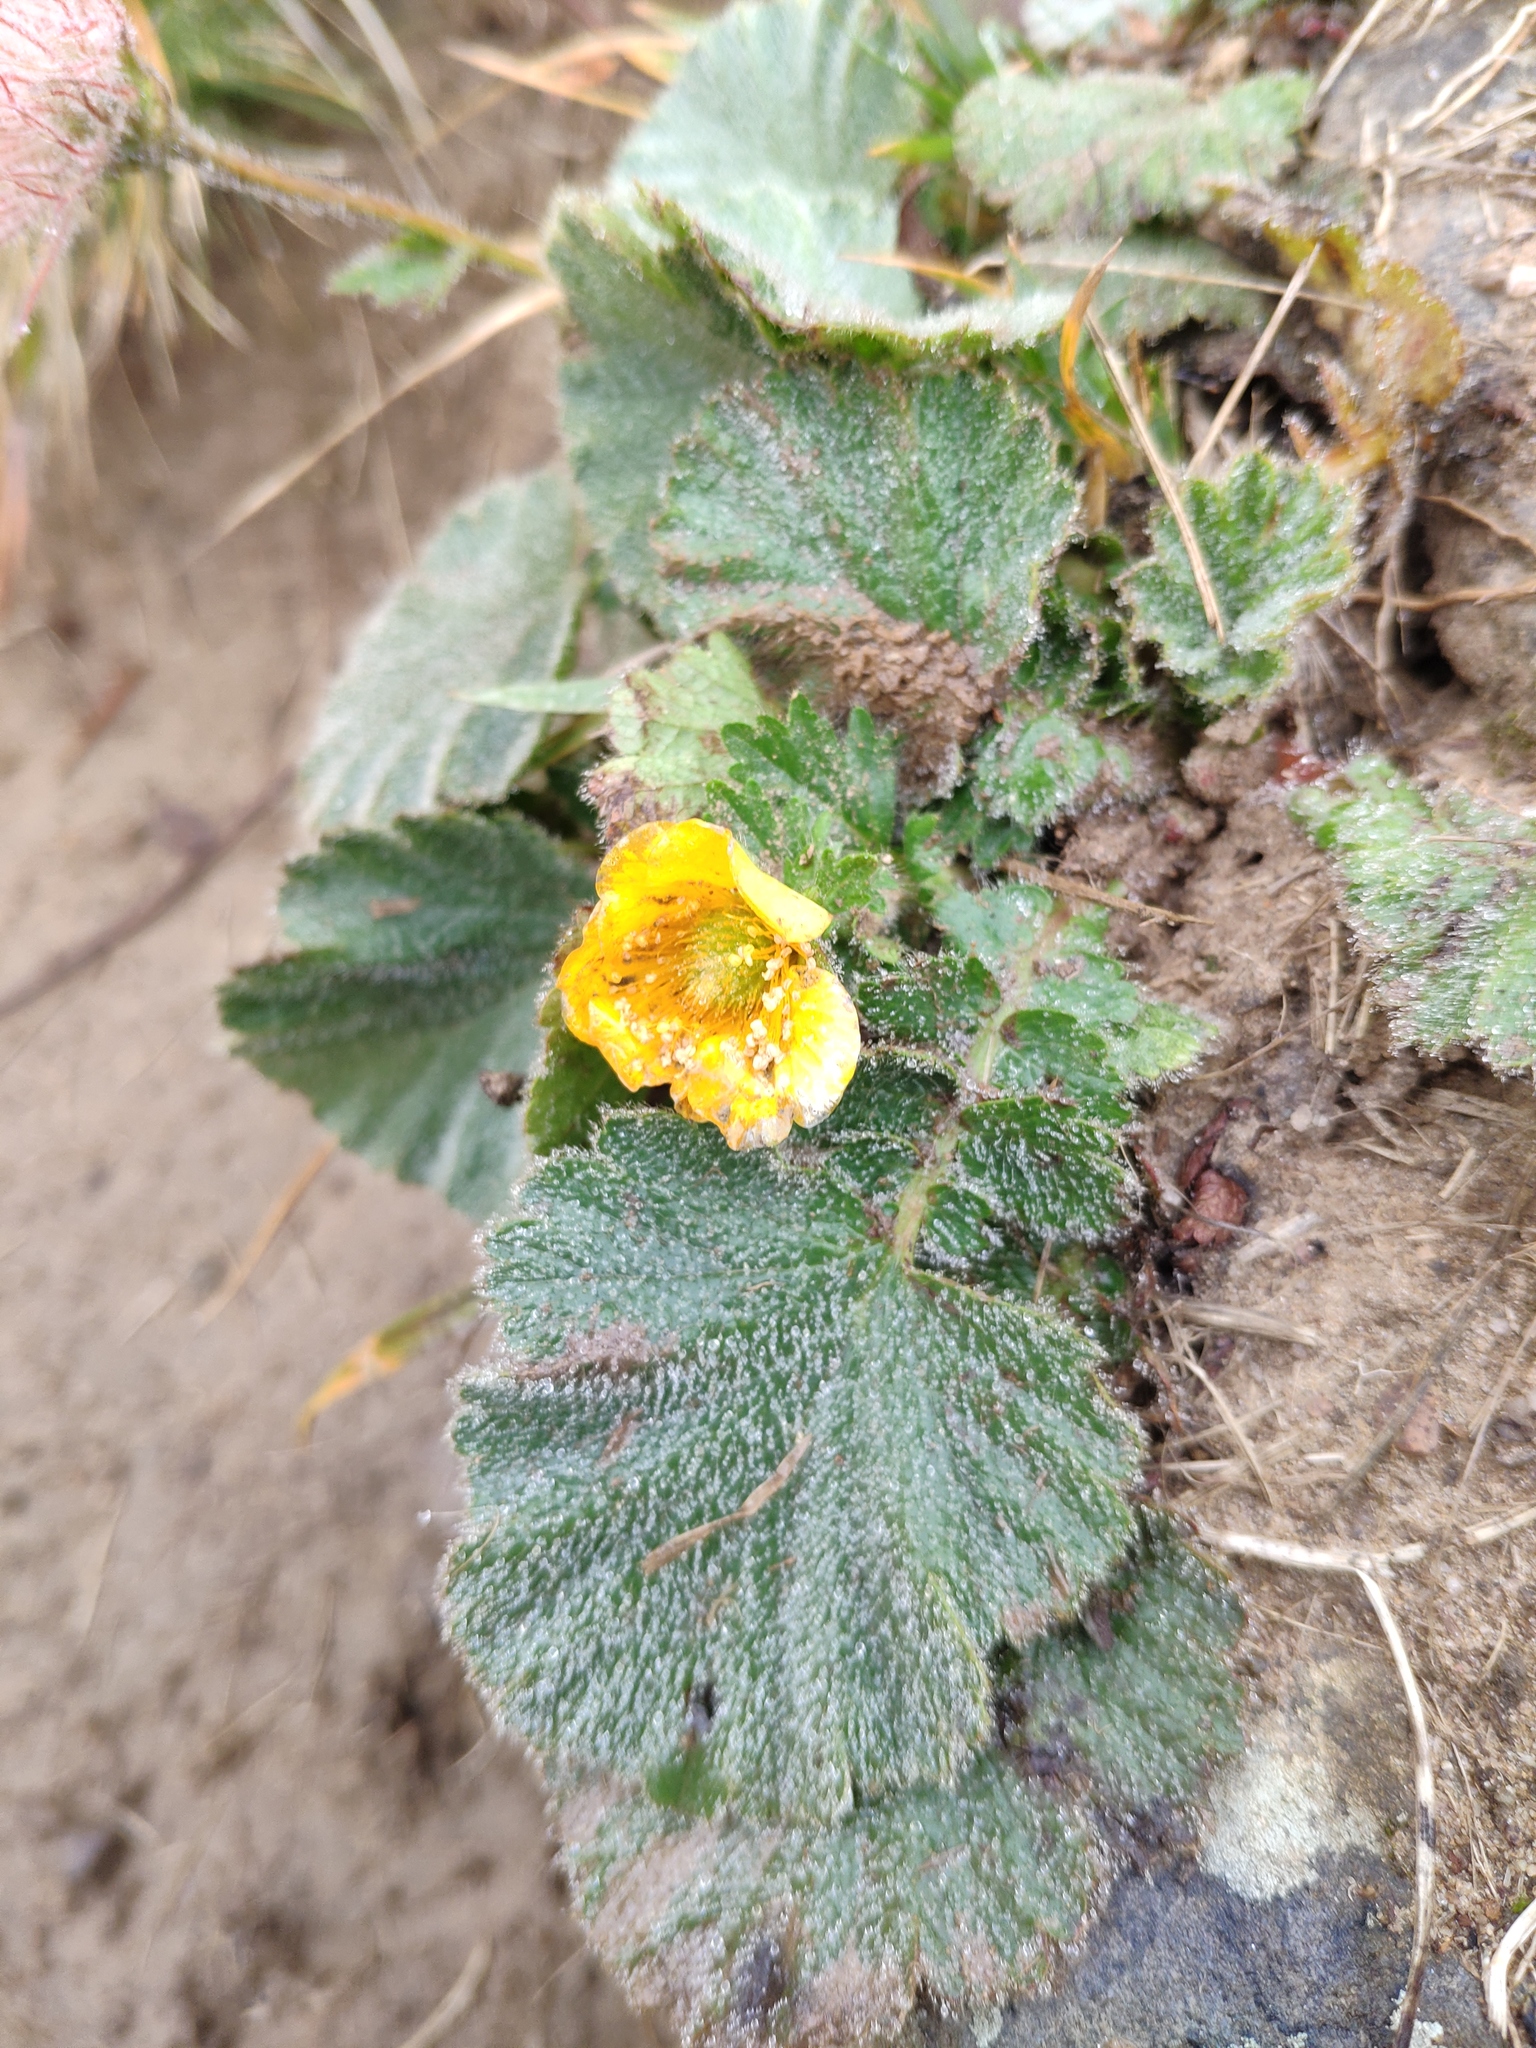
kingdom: Plantae
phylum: Tracheophyta
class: Magnoliopsida
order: Rosales
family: Rosaceae
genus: Geum
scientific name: Geum montanum
